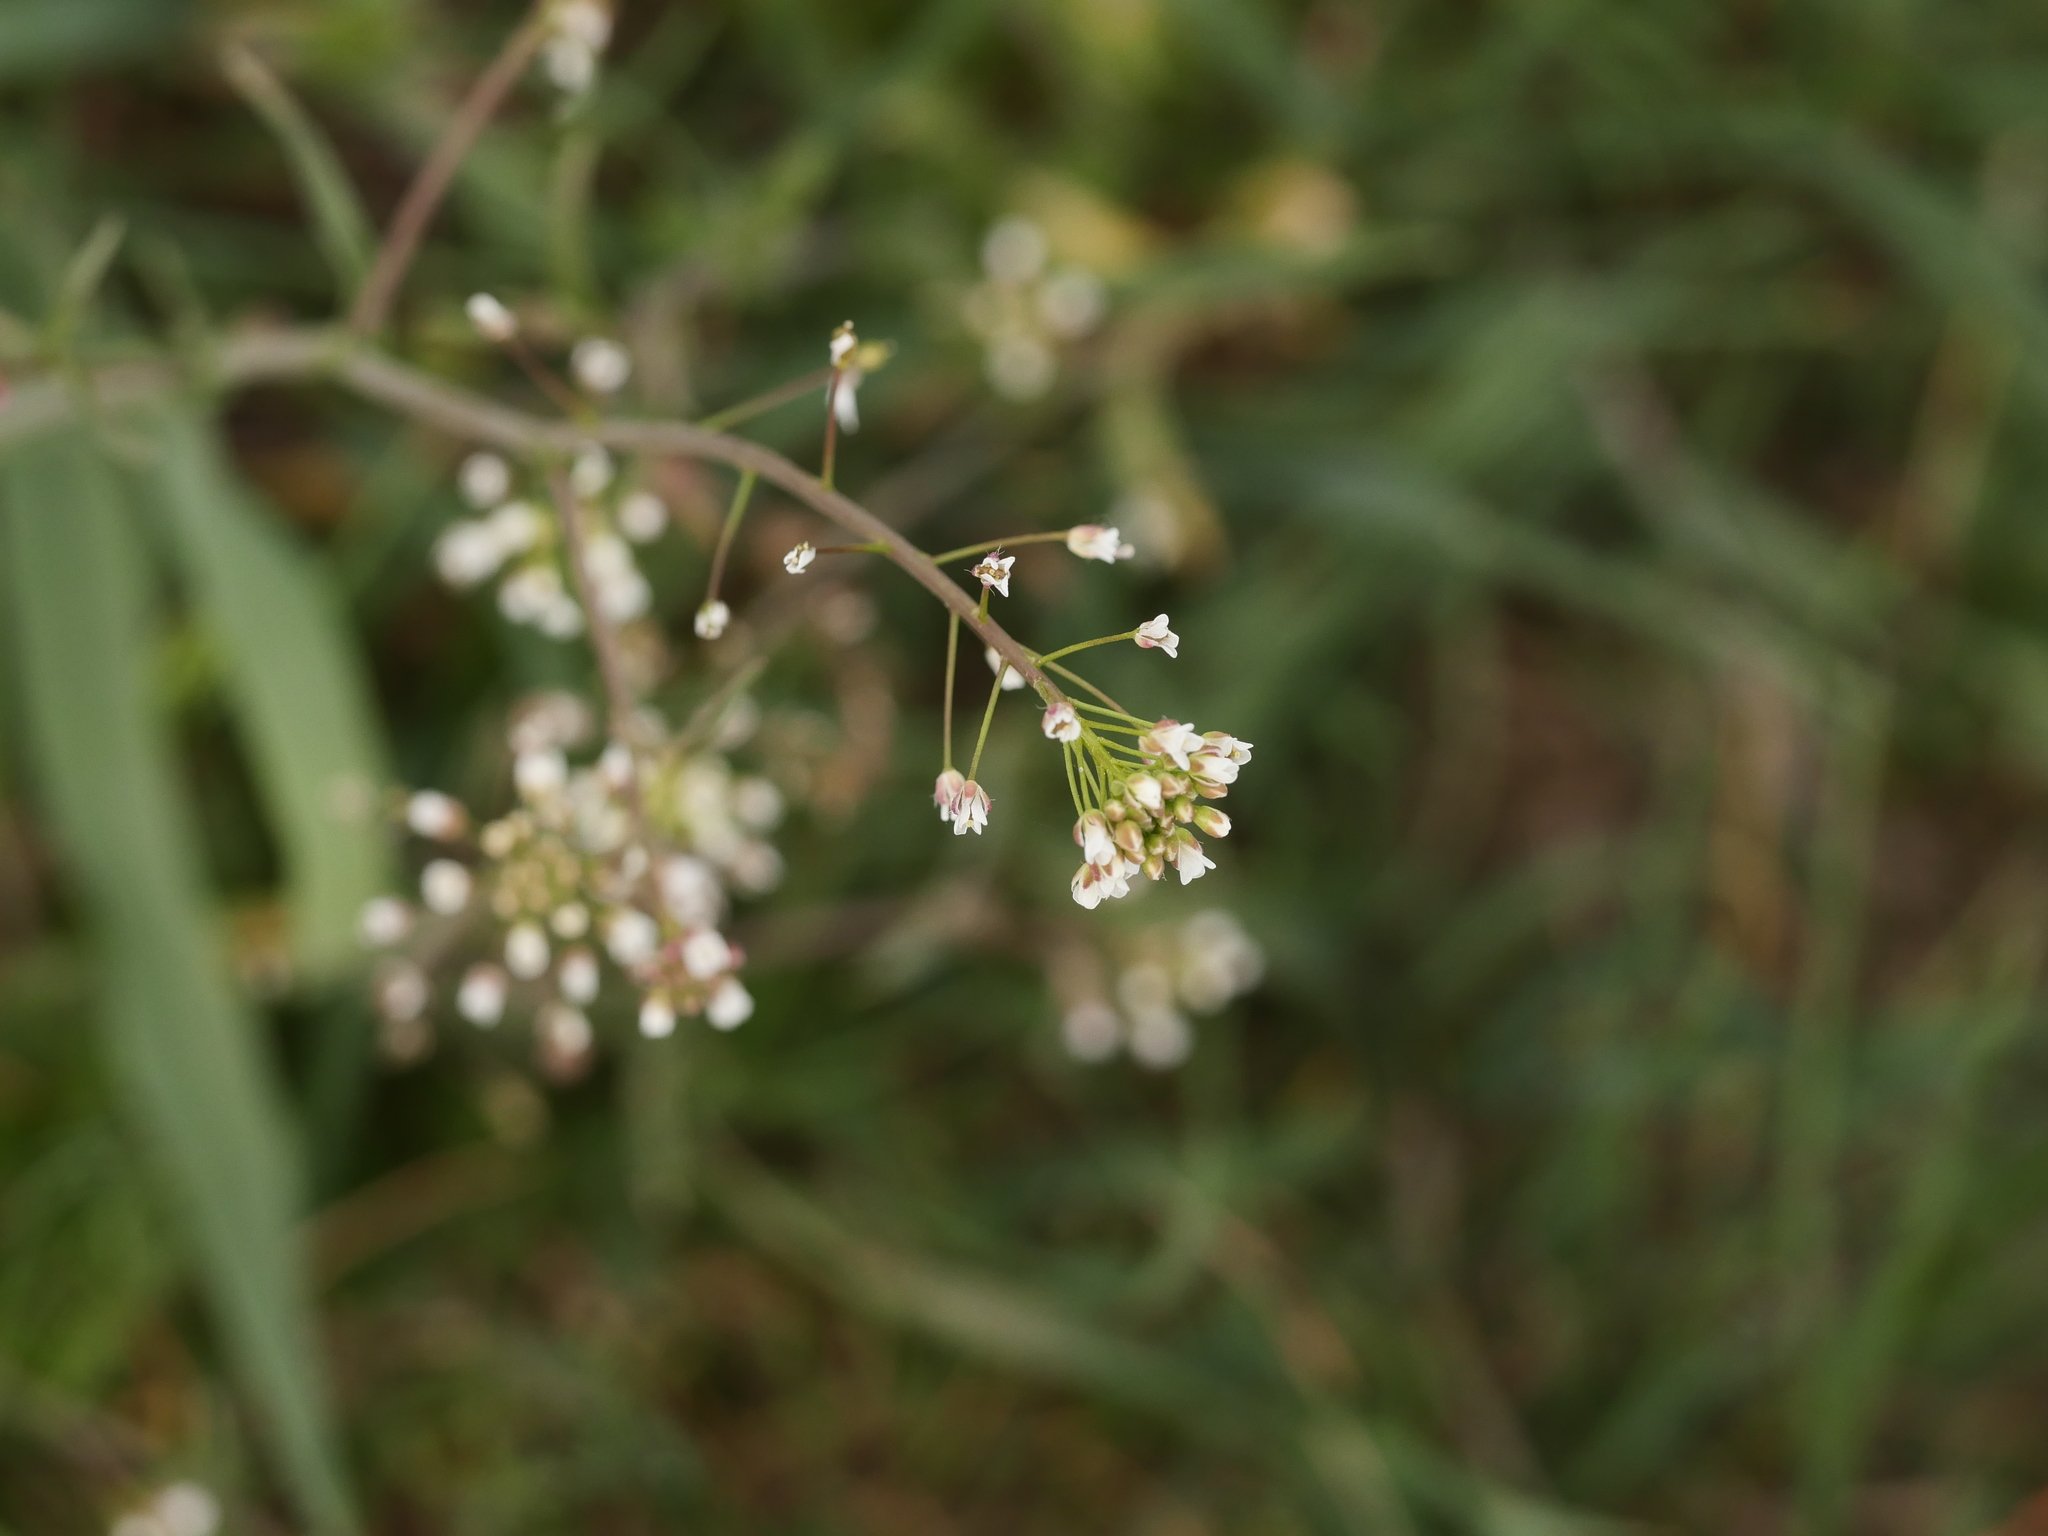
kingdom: Plantae
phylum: Tracheophyta
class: Magnoliopsida
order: Brassicales
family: Brassicaceae
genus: Capsella
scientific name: Capsella bursa-pastoris
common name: Shepherd's purse
